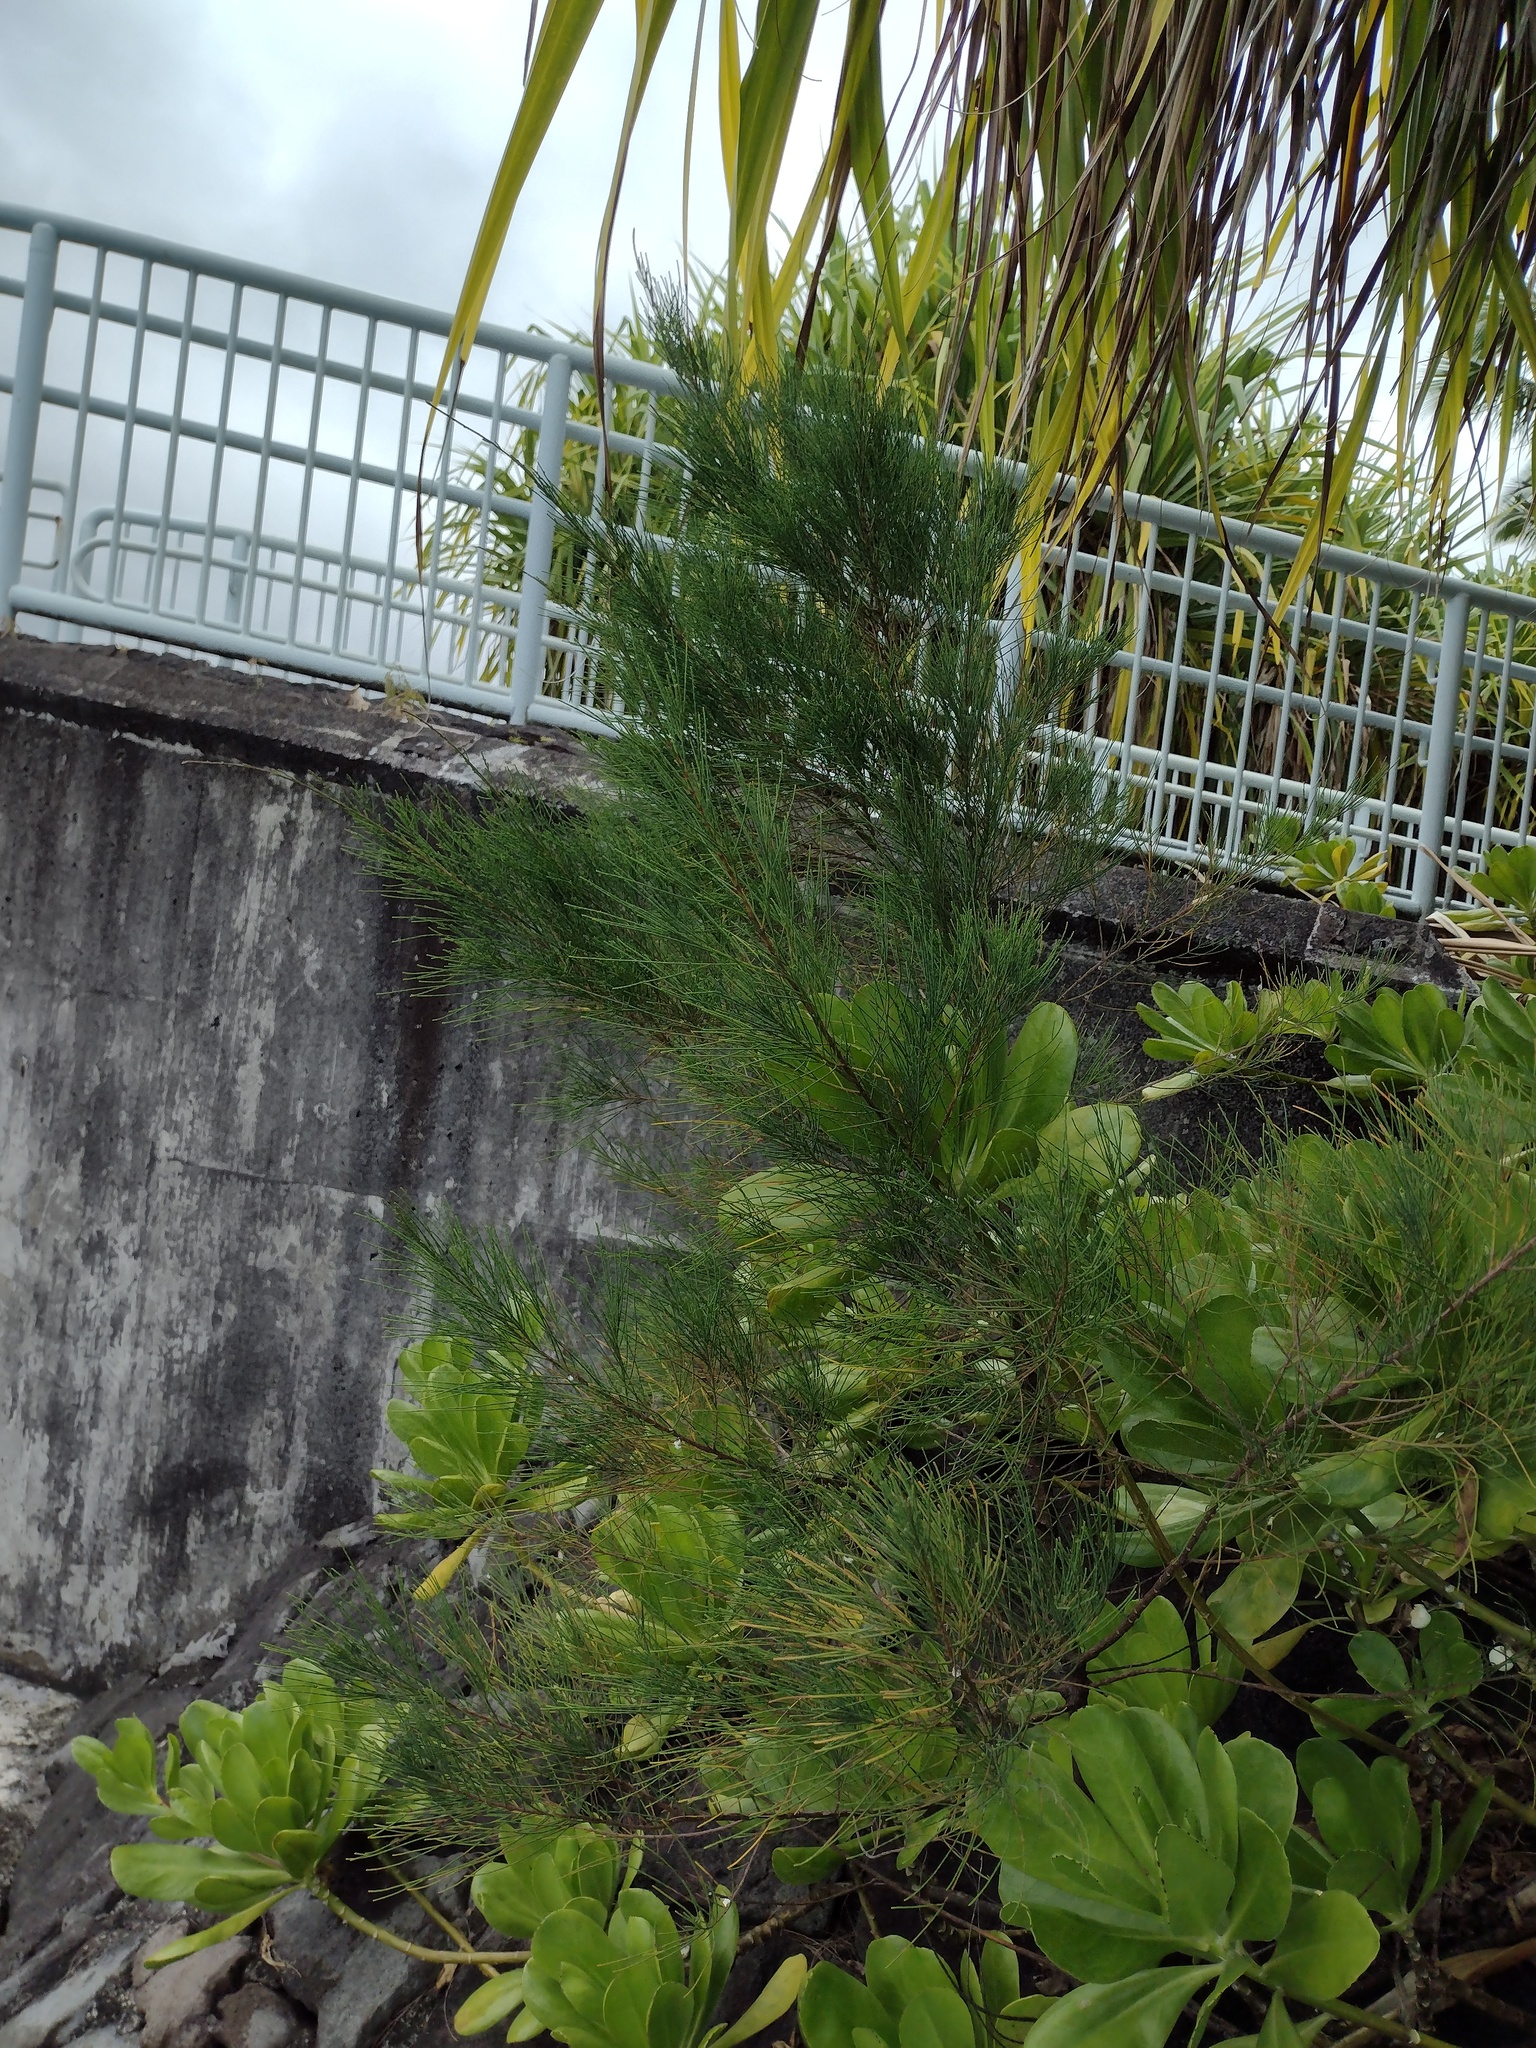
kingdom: Plantae
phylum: Tracheophyta
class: Magnoliopsida
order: Fagales
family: Casuarinaceae
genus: Casuarina
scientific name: Casuarina equisetifolia
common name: Beach sheoak
